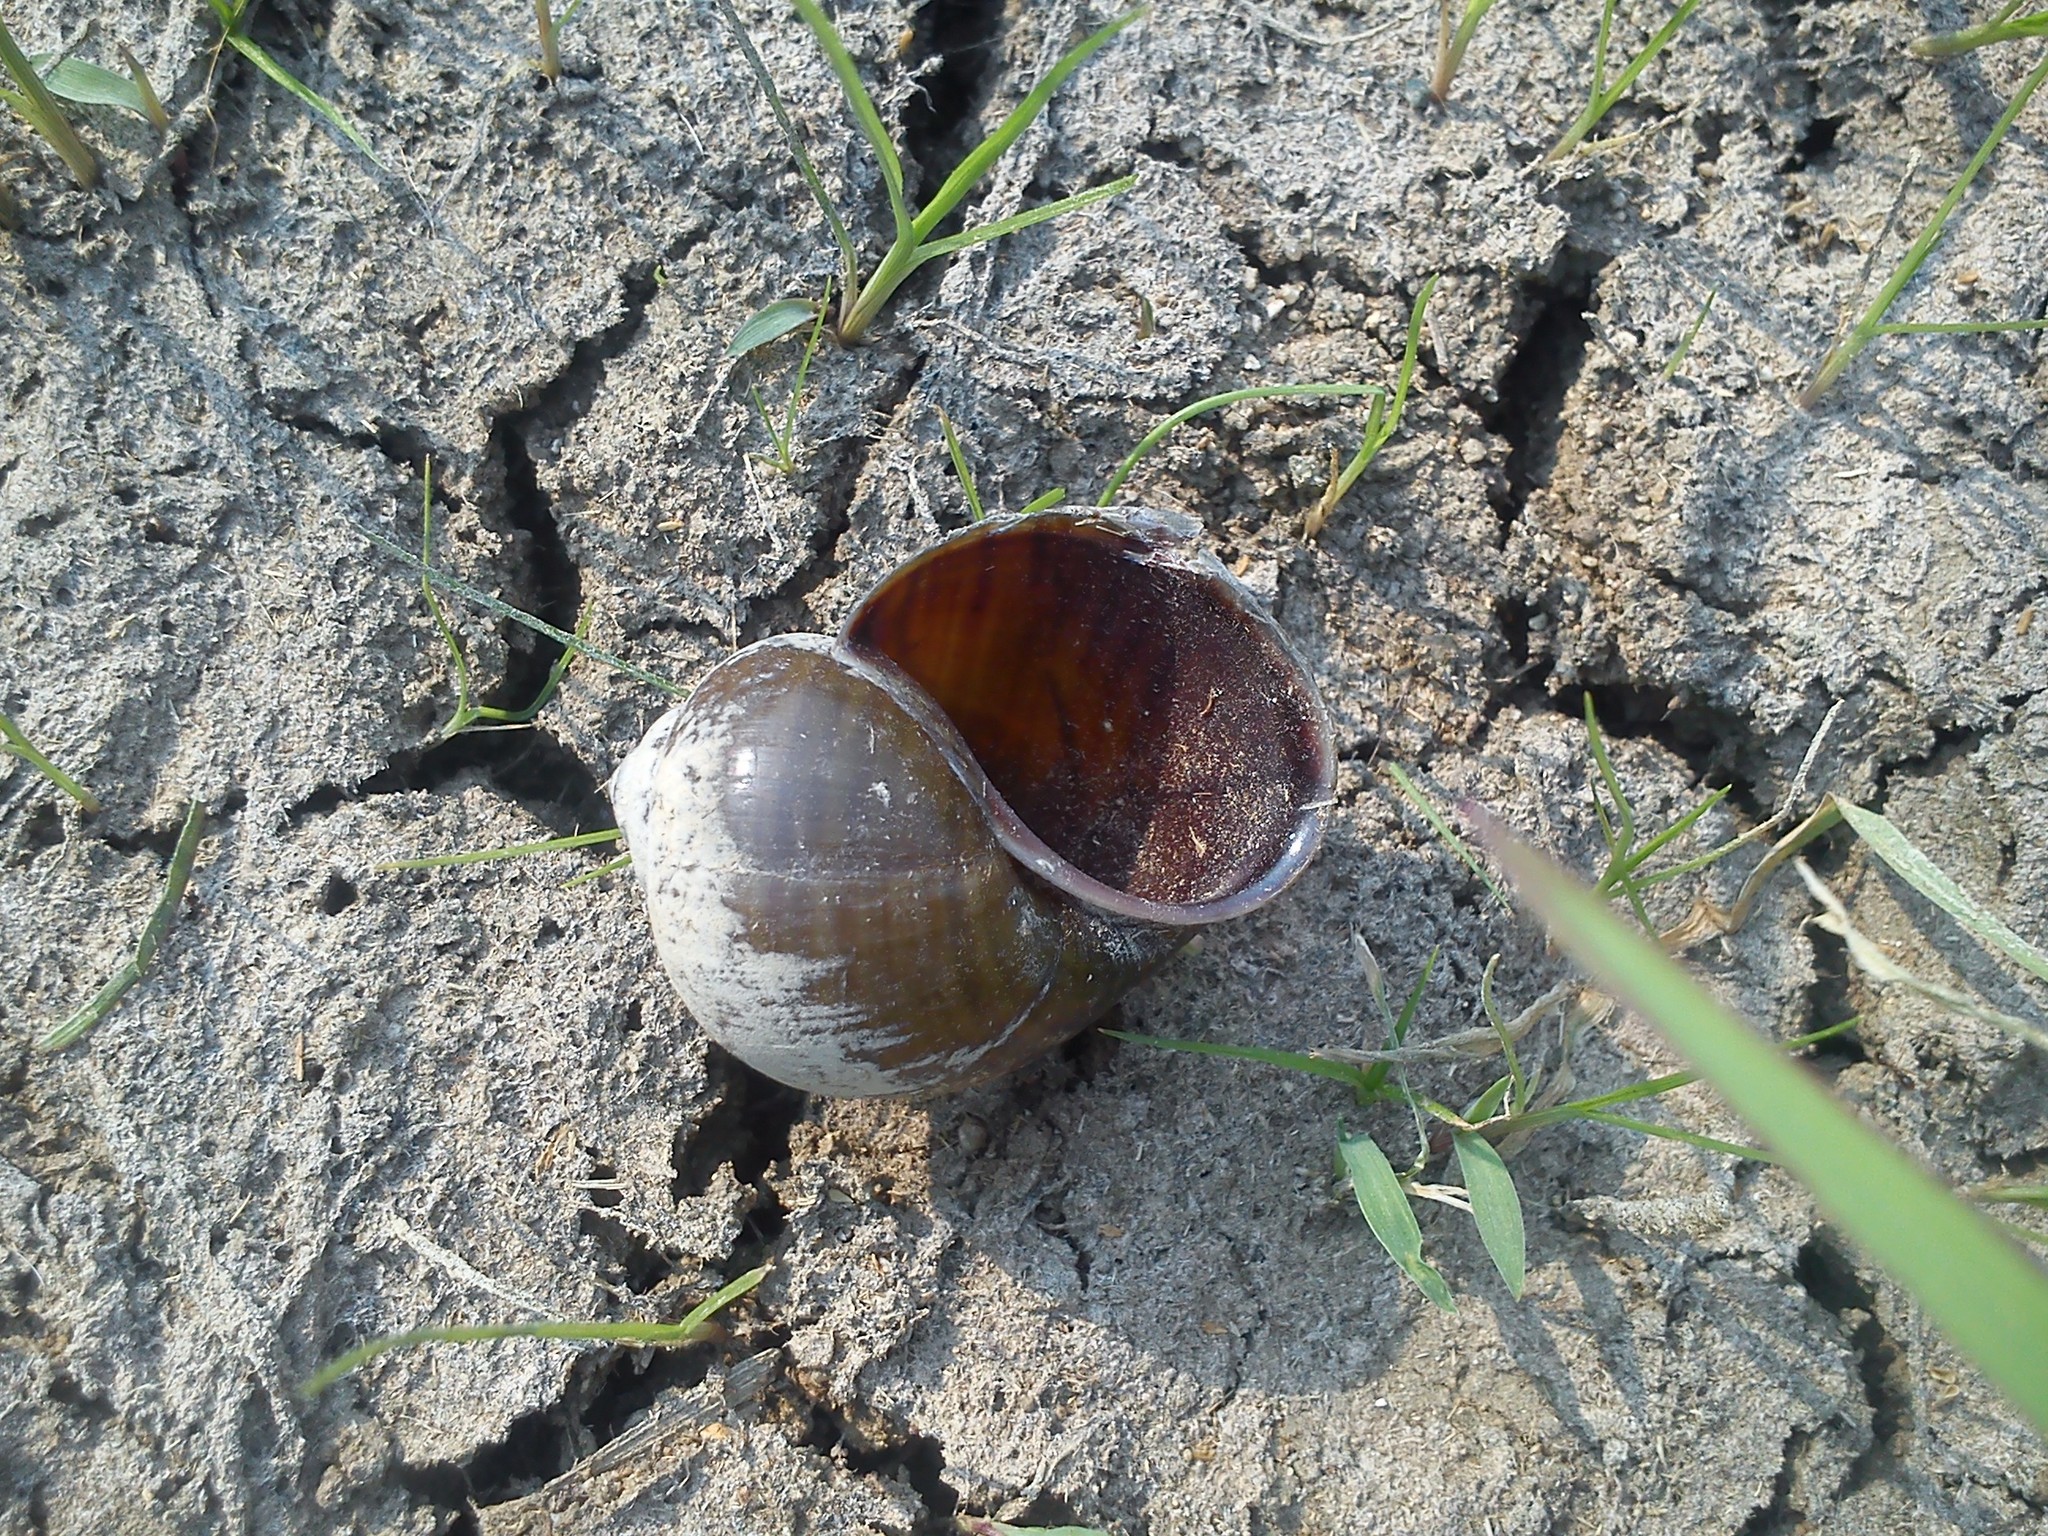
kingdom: Animalia
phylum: Mollusca
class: Gastropoda
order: Architaenioglossa
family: Ampullariidae
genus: Pomacea
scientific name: Pomacea flagellata
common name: Maya apple snail
